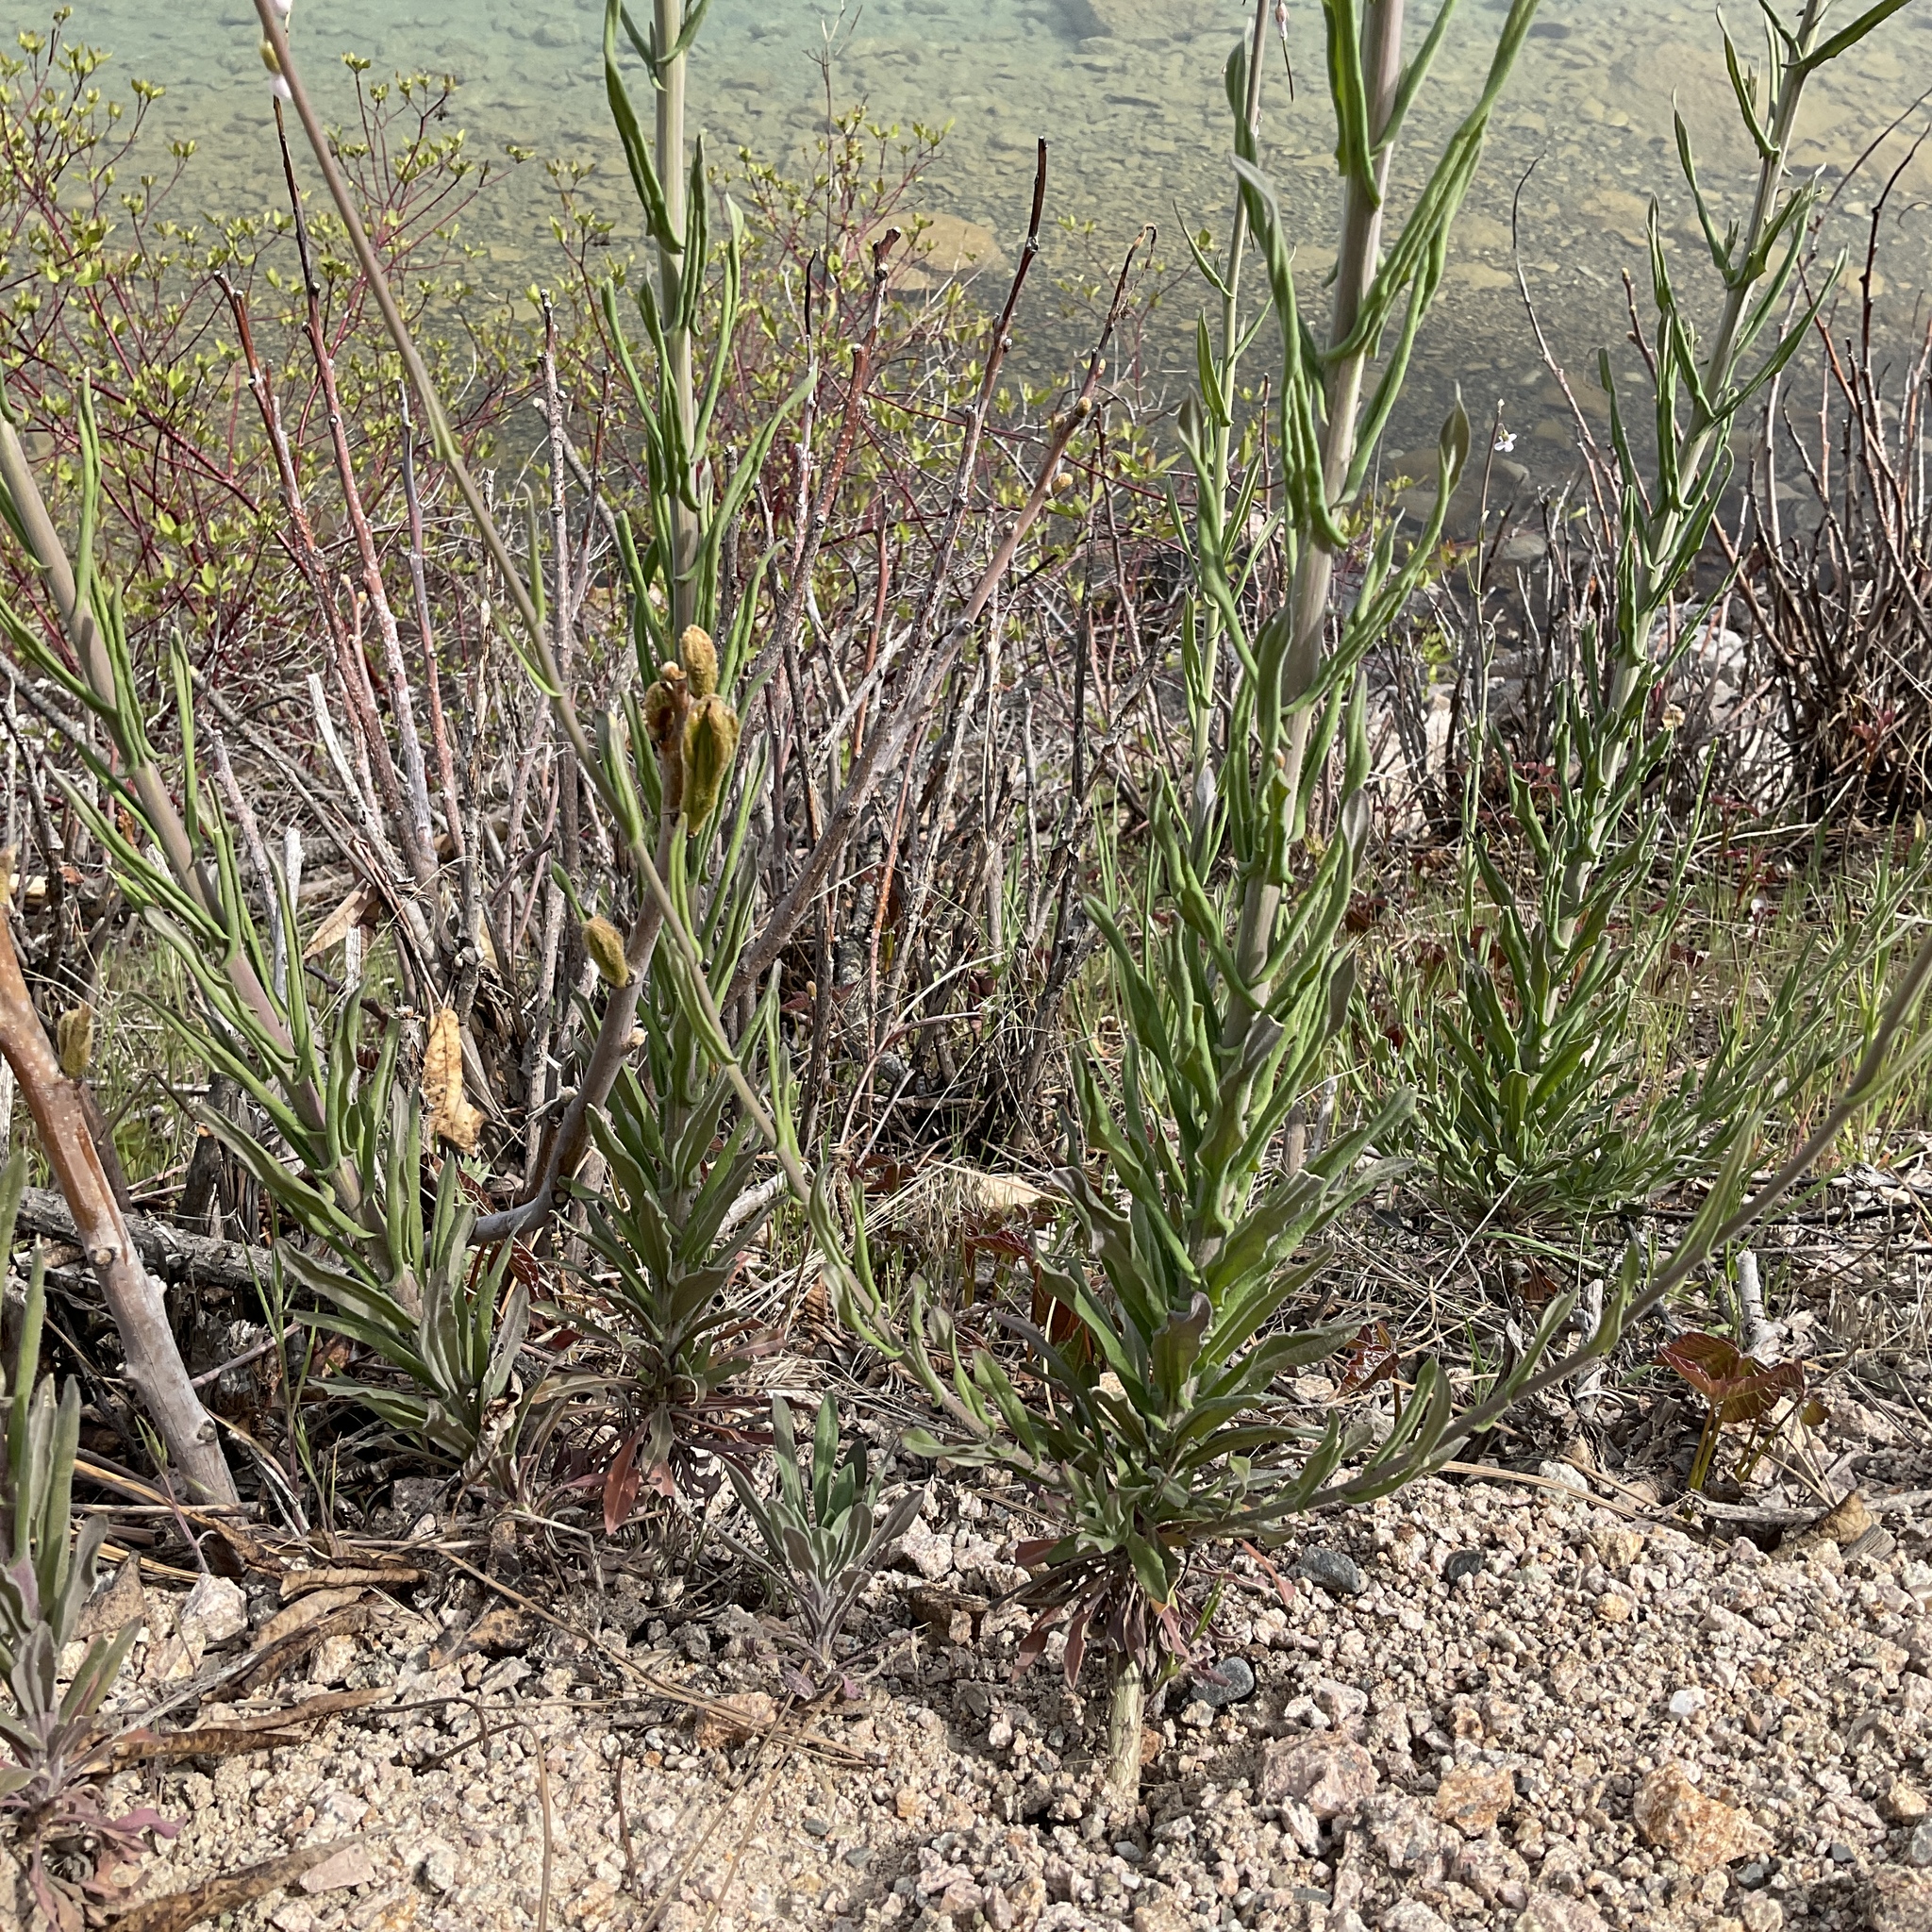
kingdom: Plantae
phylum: Tracheophyta
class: Magnoliopsida
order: Brassicales
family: Brassicaceae
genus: Boechera
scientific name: Boechera retrofracta
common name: Dangling suncress
